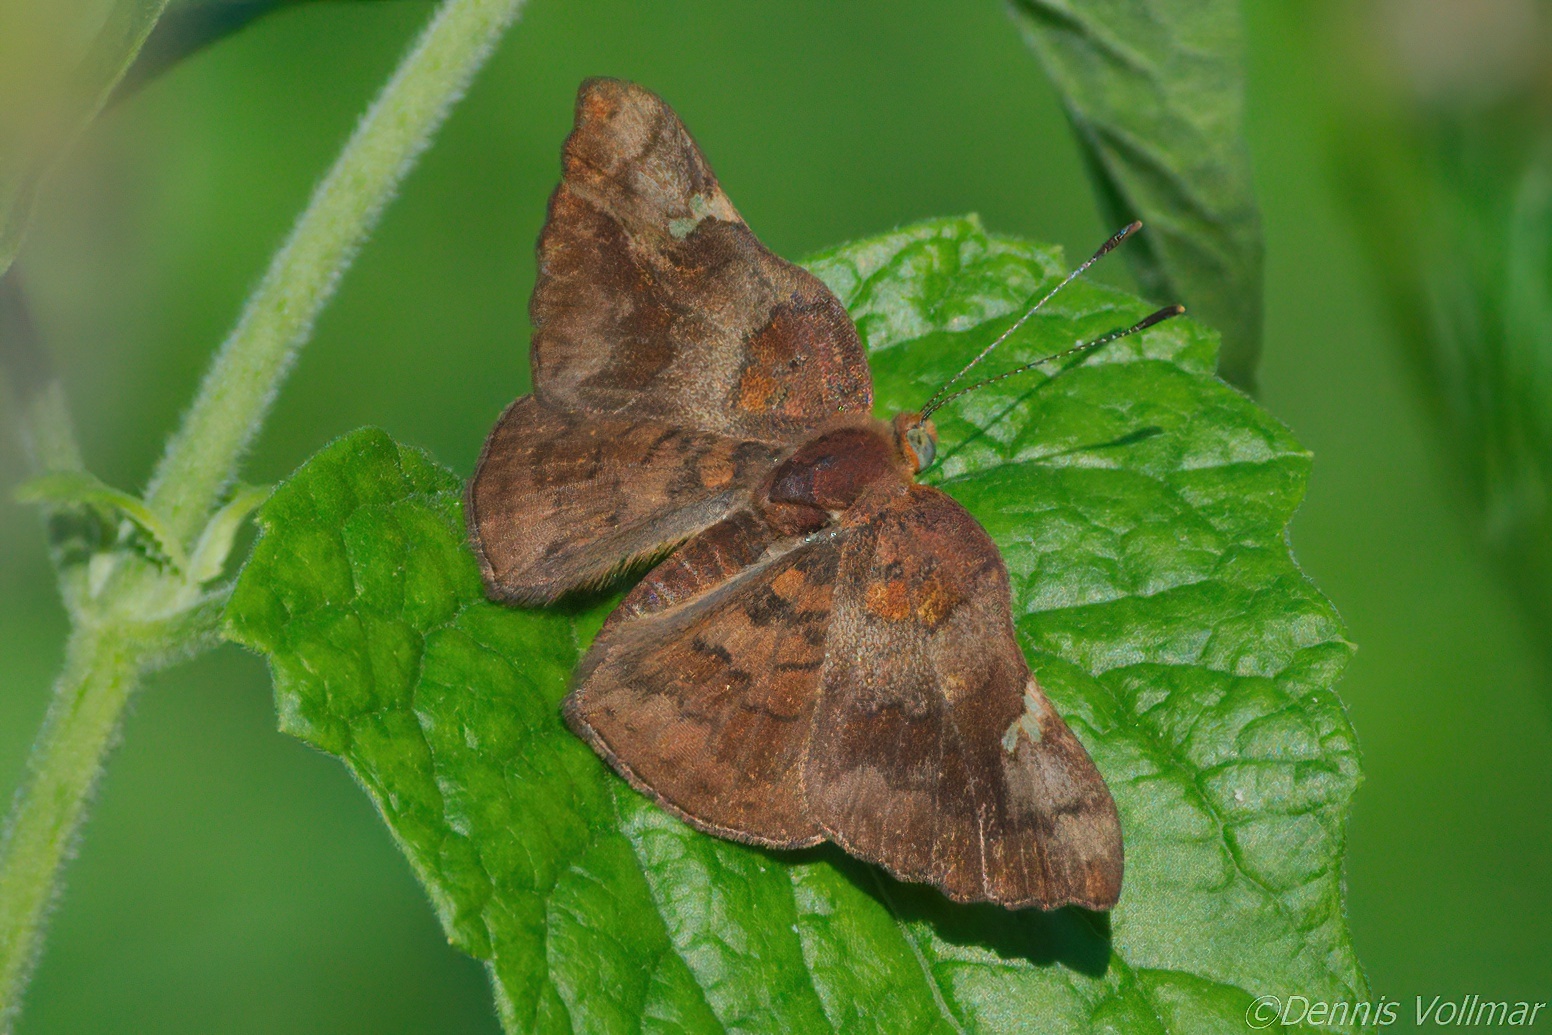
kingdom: Animalia
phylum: Arthropoda
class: Insecta
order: Lepidoptera
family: Riodinidae
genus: Curvie
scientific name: Curvie emesia
